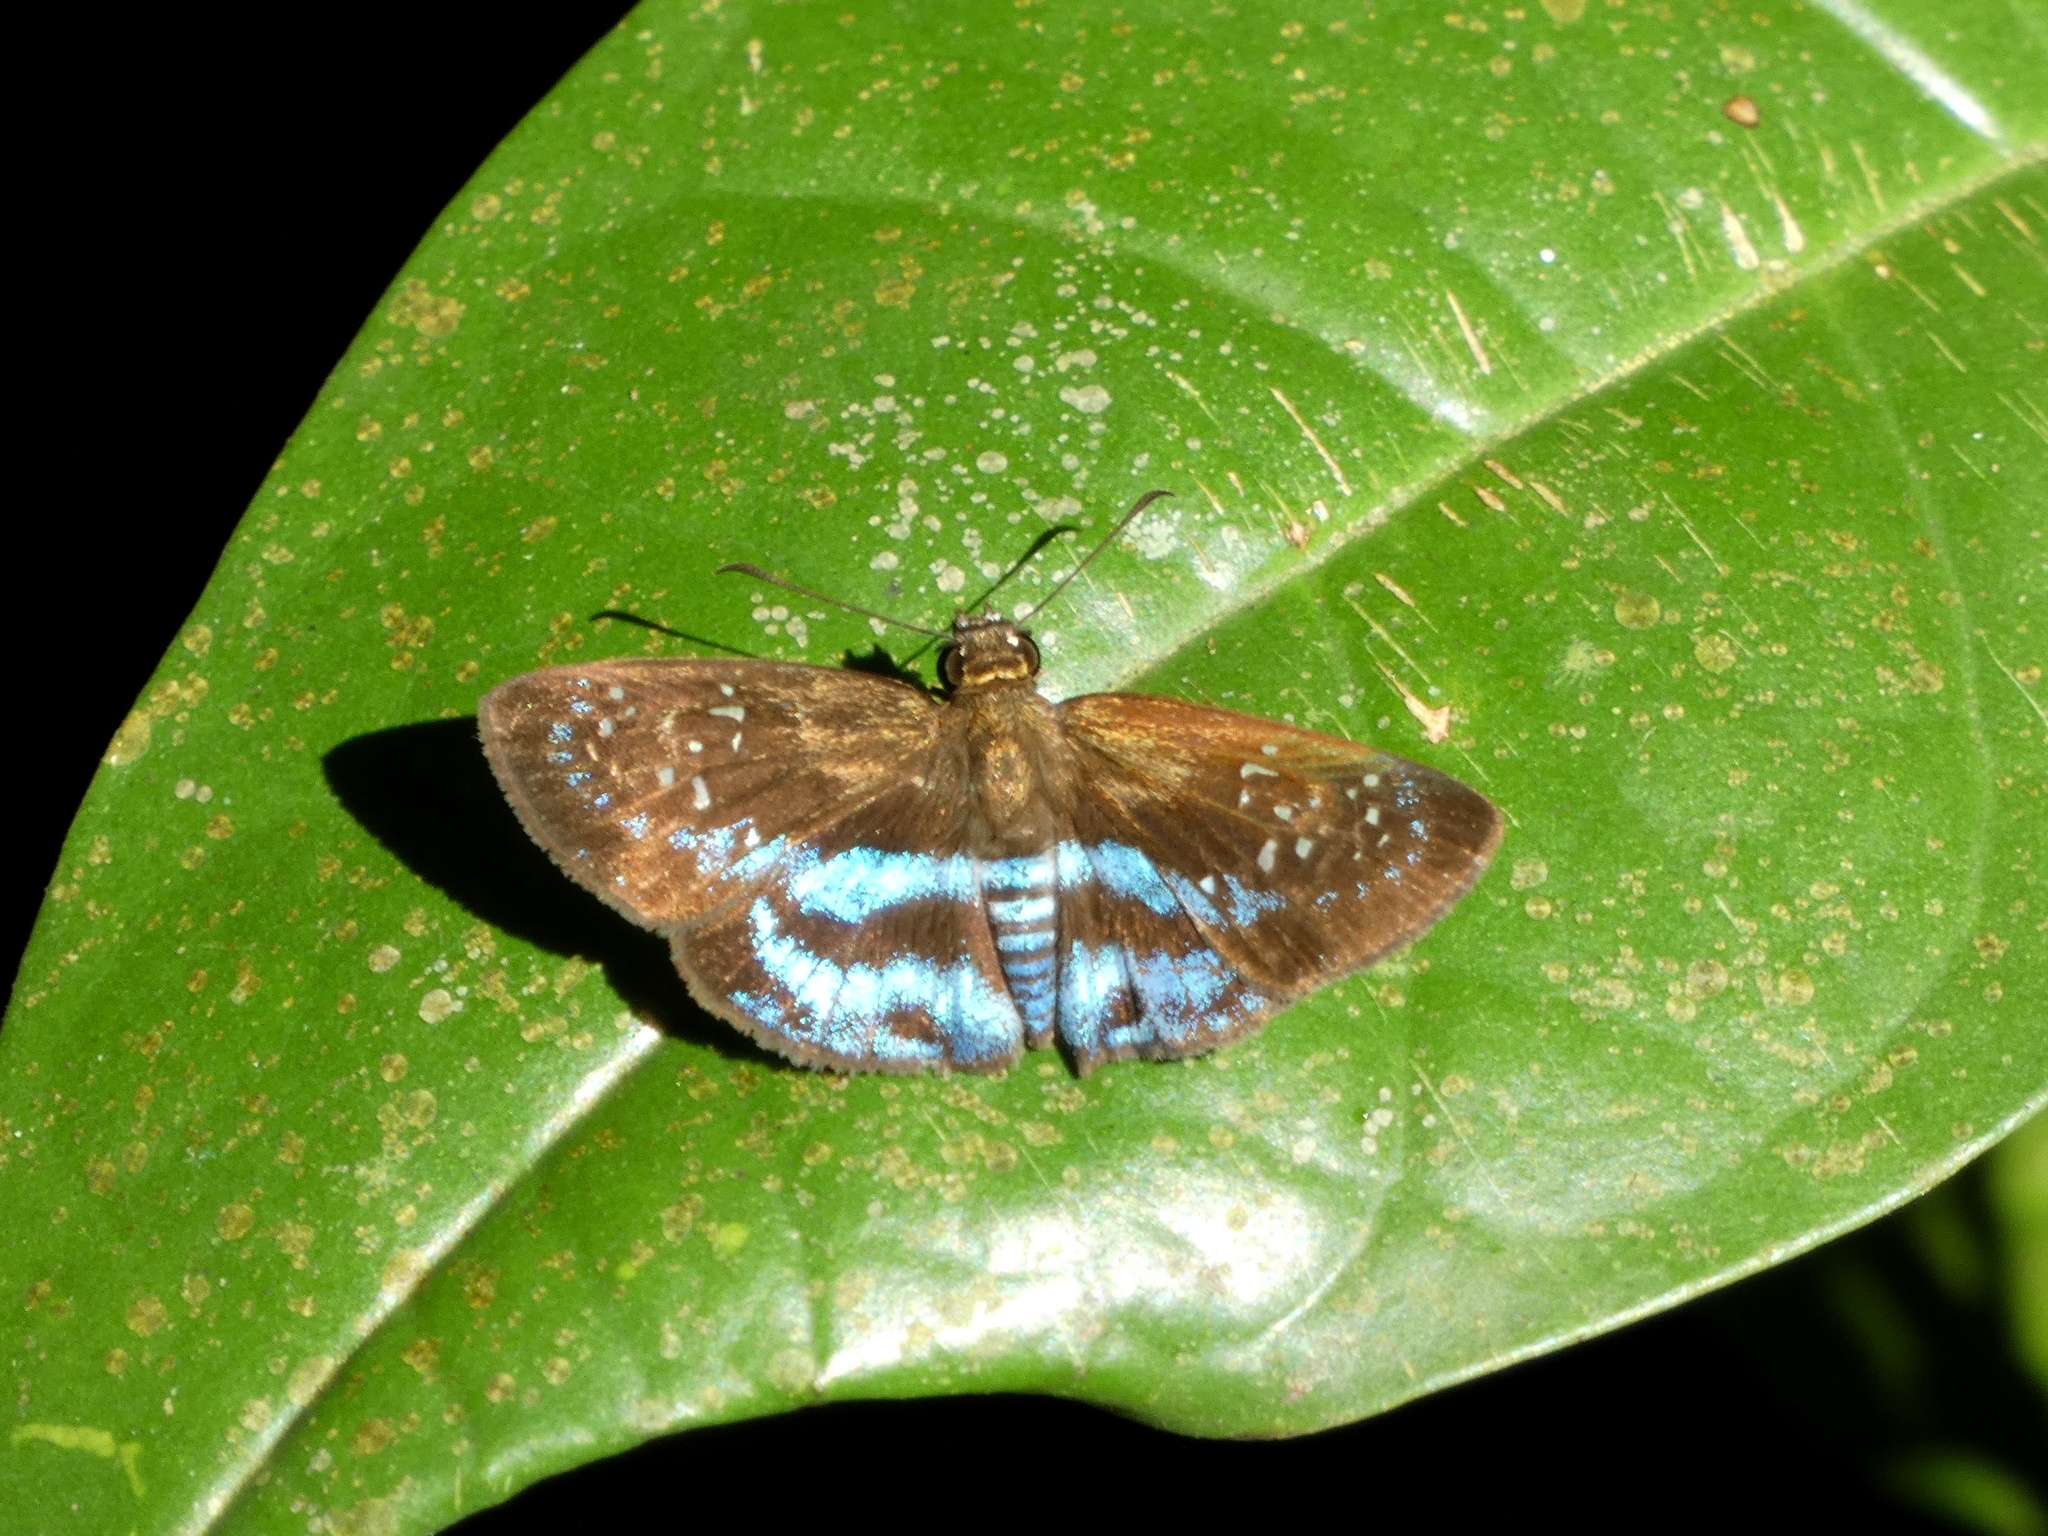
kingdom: Animalia
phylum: Arthropoda
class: Insecta
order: Lepidoptera
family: Hesperiidae
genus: Quadrus
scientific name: Quadrus cerialis
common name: Common blue-skipper
